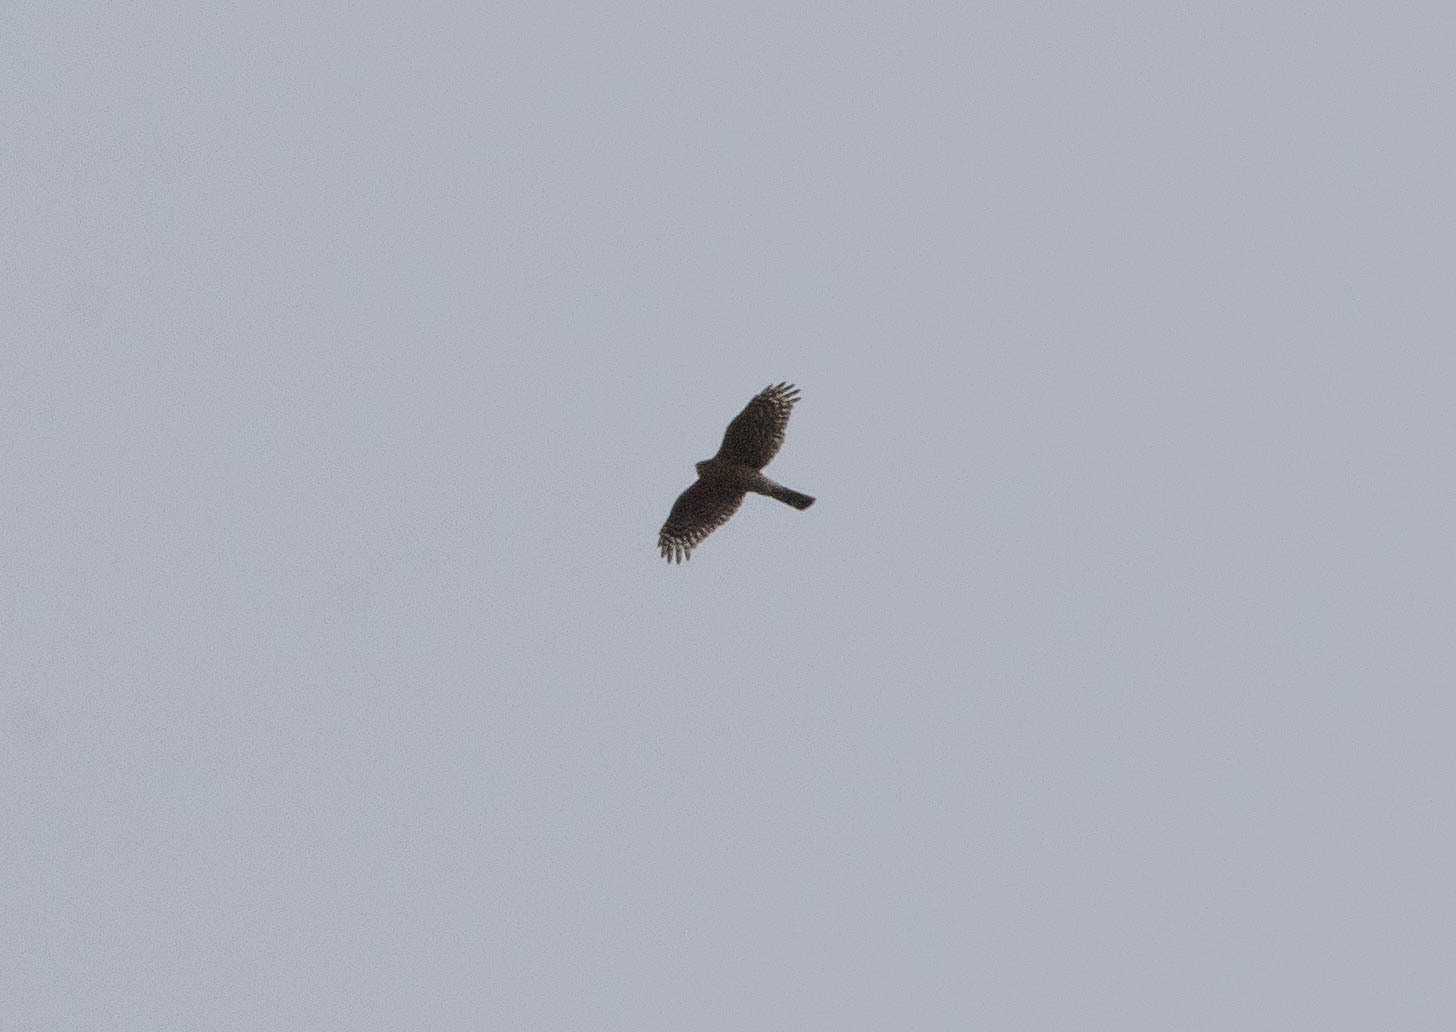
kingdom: Animalia
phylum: Chordata
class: Aves
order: Accipitriformes
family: Accipitridae
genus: Accipiter
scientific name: Accipiter cooperii
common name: Cooper's hawk
